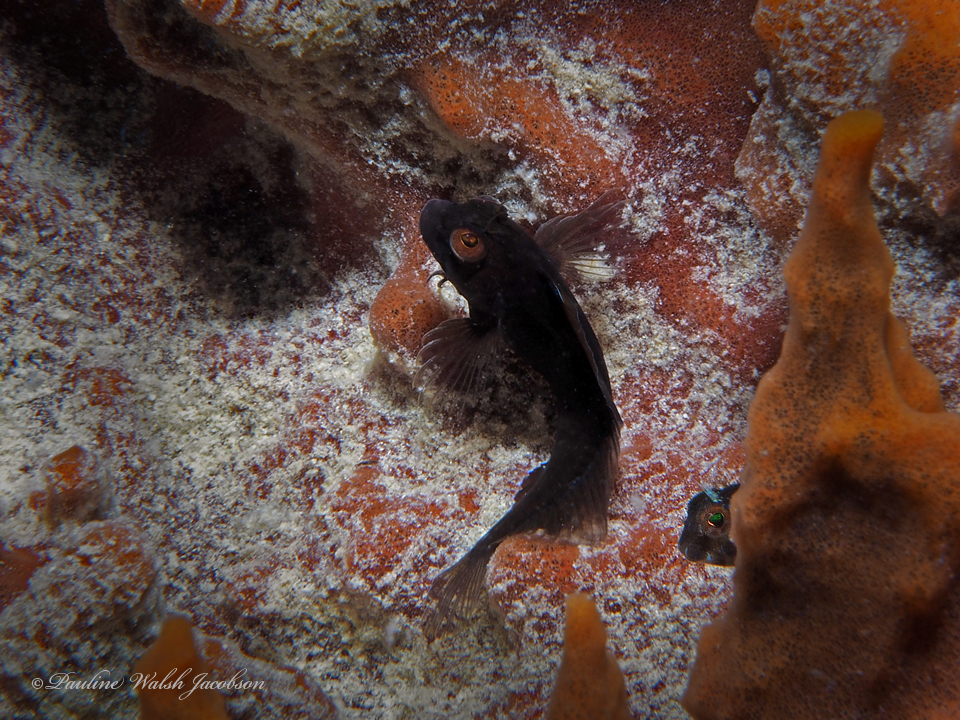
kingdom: Animalia
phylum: Chordata
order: Perciformes
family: Blenniidae
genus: Parablennius
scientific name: Parablennius marmoreus
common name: Seaweed blenny
